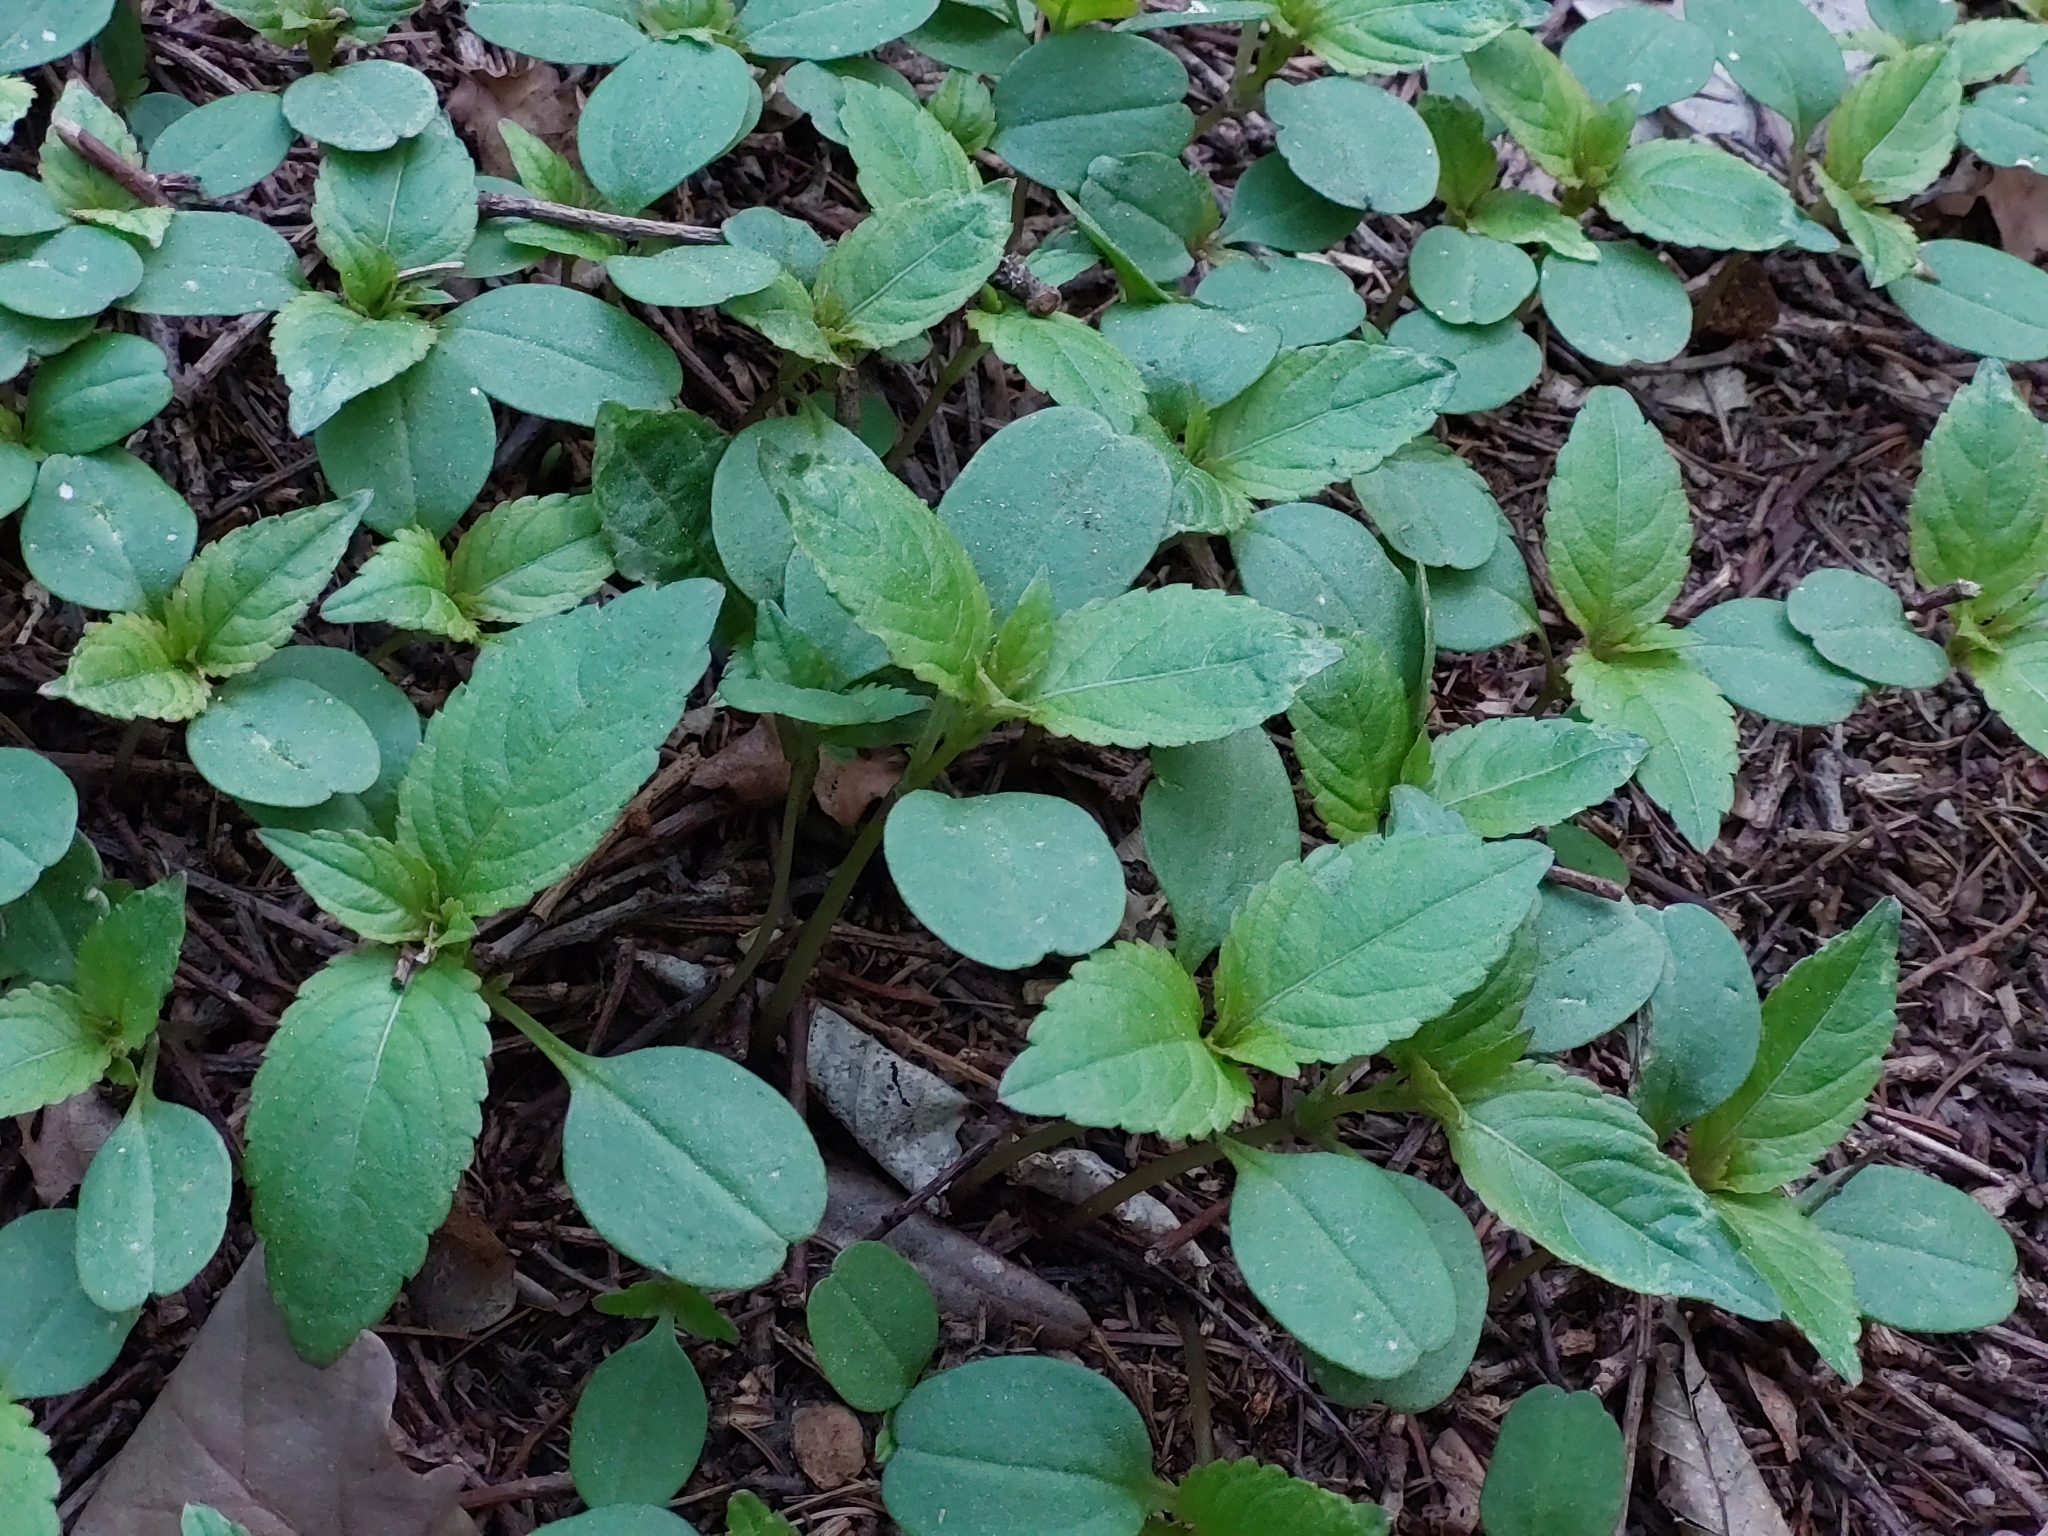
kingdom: Plantae
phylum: Tracheophyta
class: Magnoliopsida
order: Ericales
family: Balsaminaceae
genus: Impatiens
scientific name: Impatiens parviflora
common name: Small balsam
